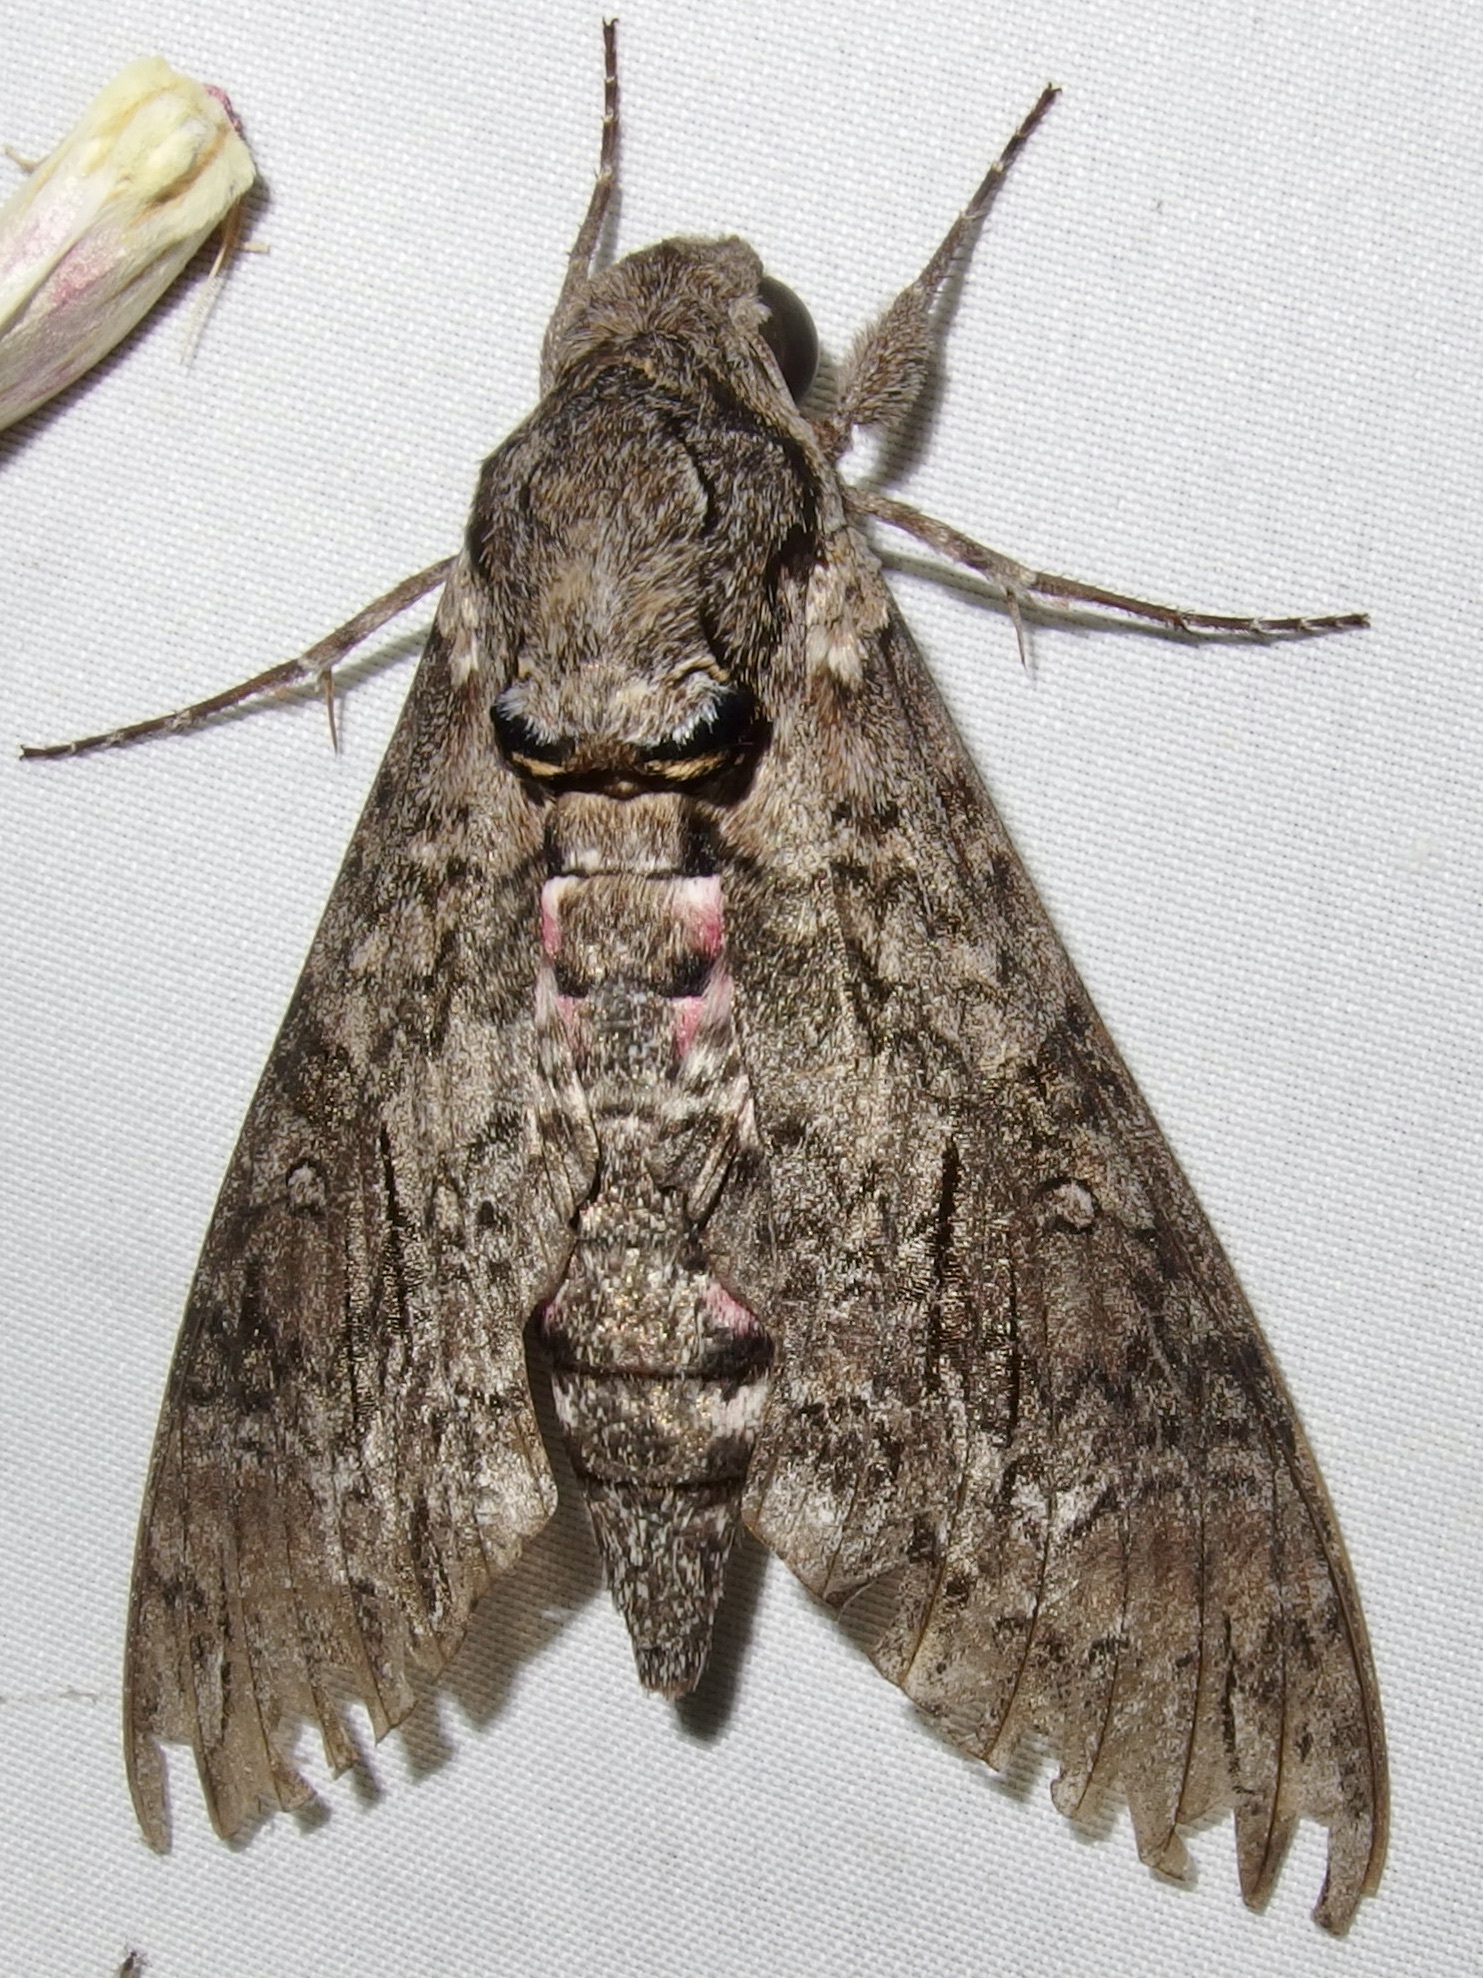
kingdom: Animalia
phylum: Arthropoda
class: Insecta
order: Lepidoptera
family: Sphingidae
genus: Agrius
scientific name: Agrius cingulata
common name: Pink-spotted hawkmoth
